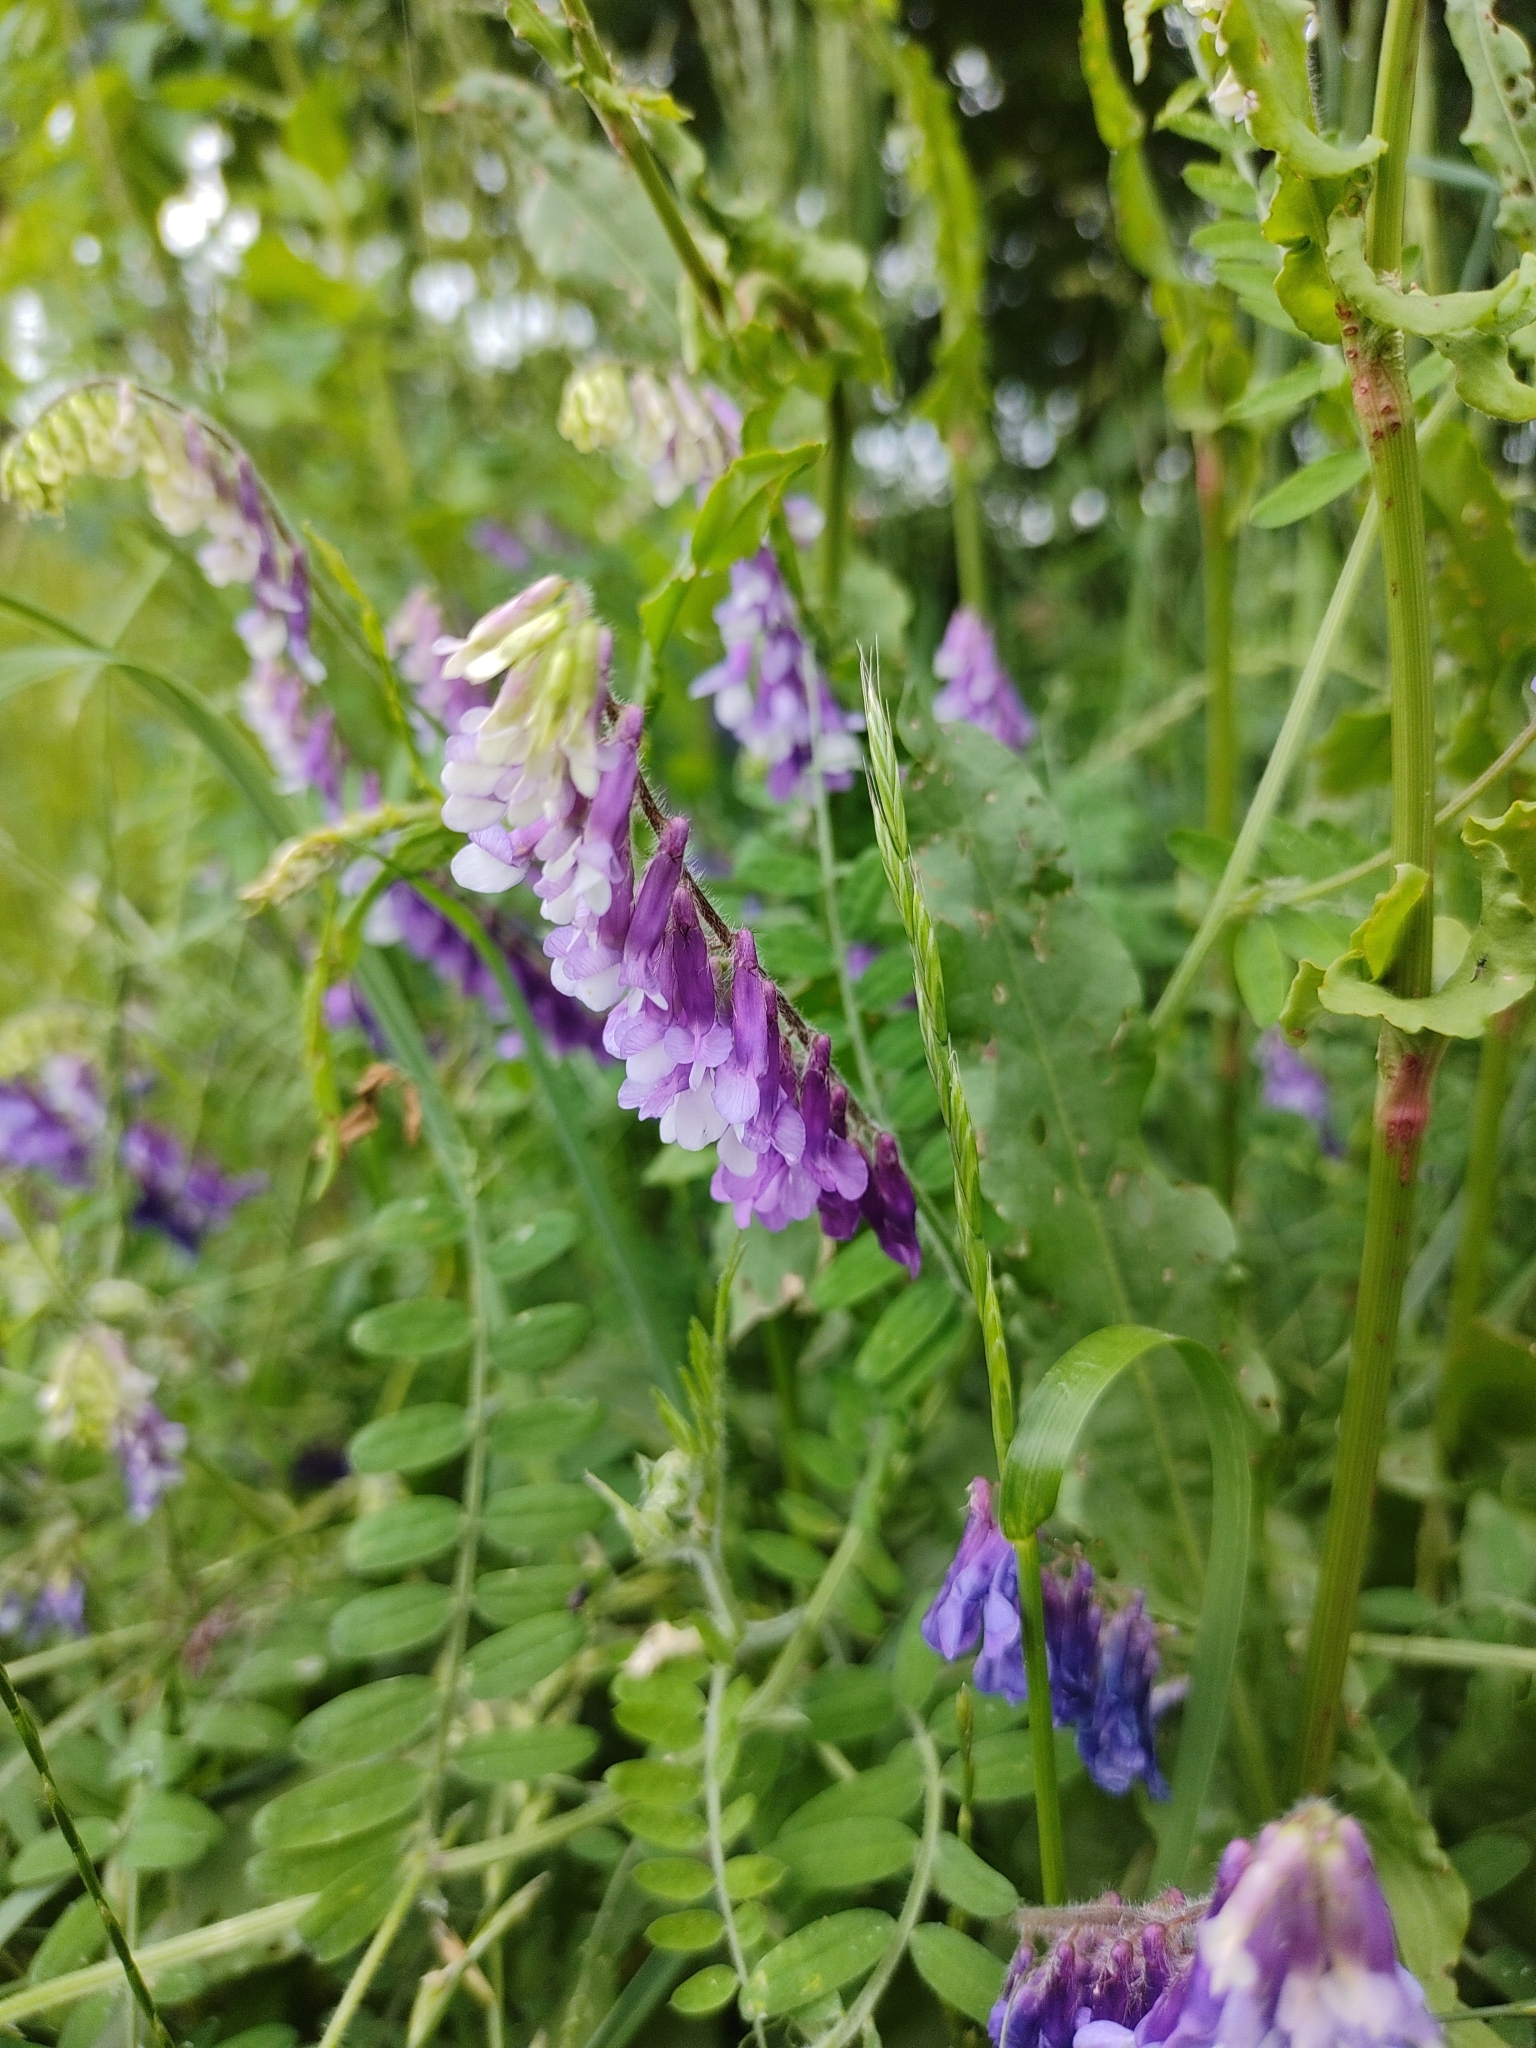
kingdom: Plantae
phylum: Tracheophyta
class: Magnoliopsida
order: Fabales
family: Fabaceae
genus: Vicia
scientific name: Vicia villosa
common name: Fodder vetch
